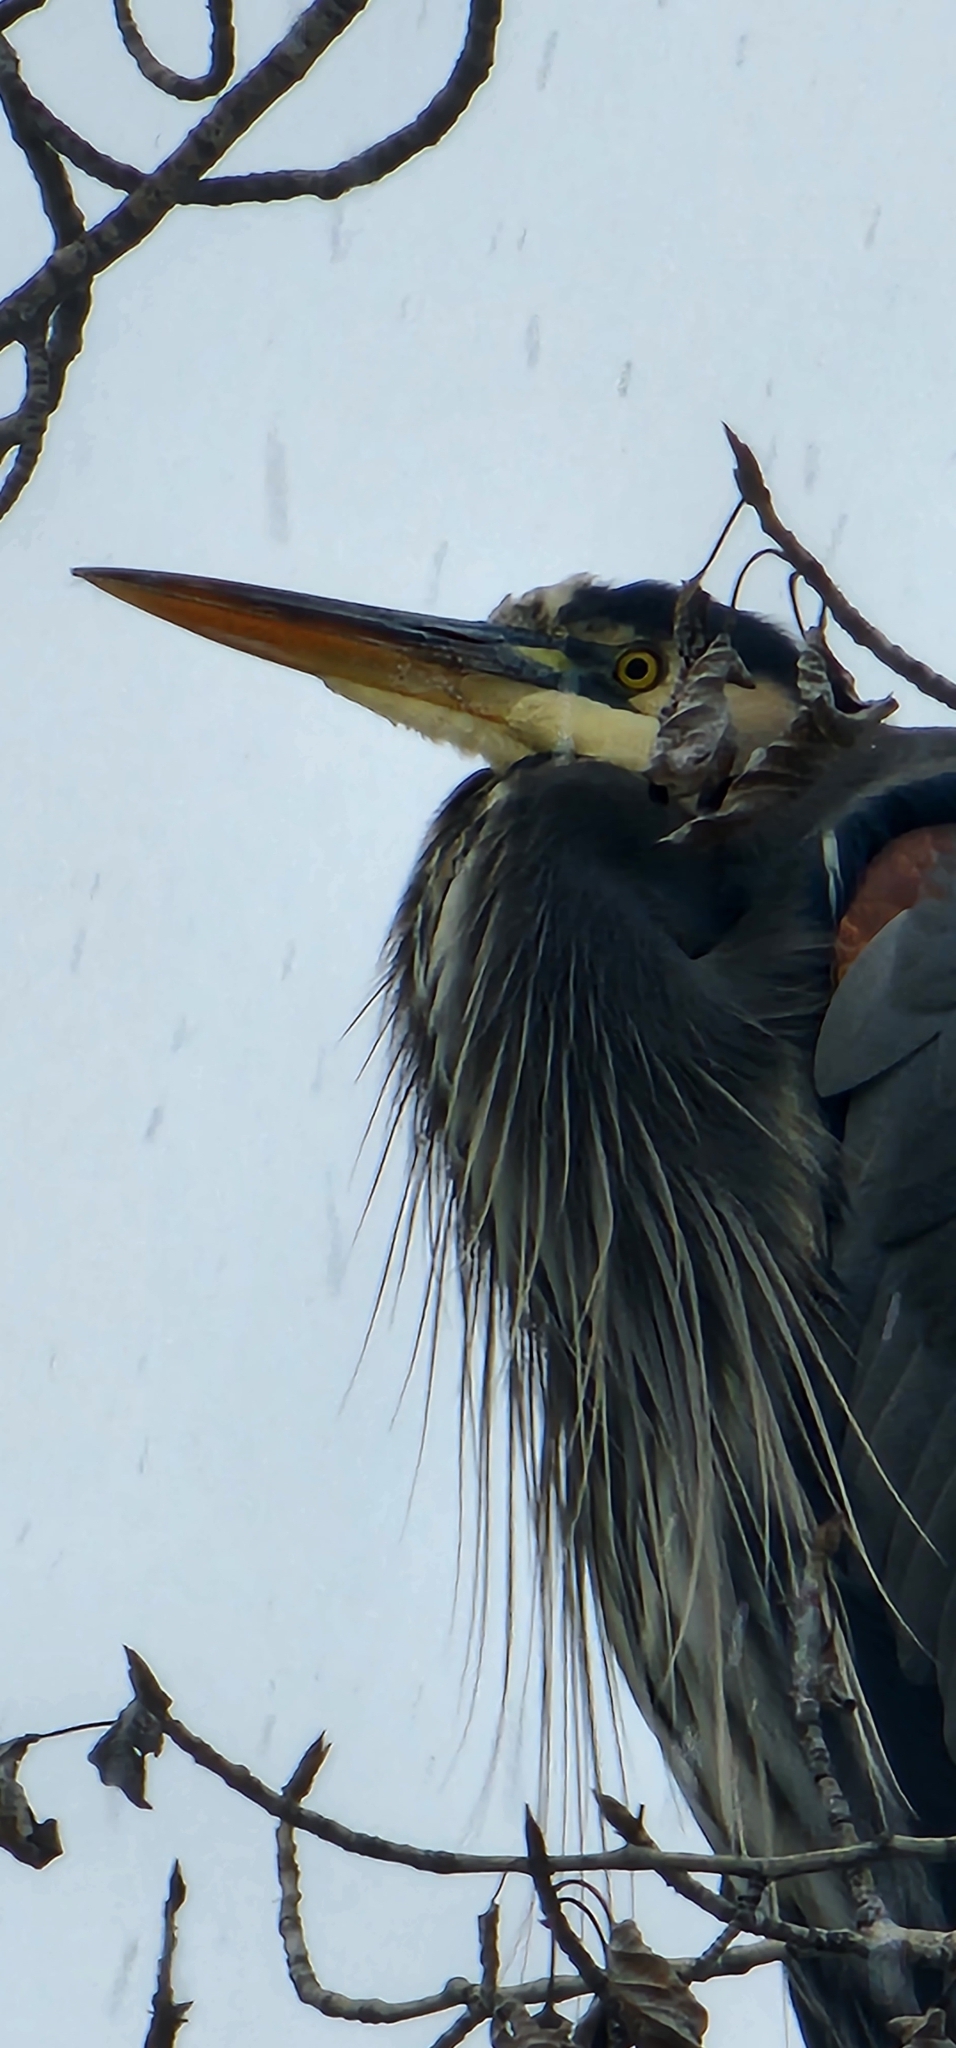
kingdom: Animalia
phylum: Chordata
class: Aves
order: Pelecaniformes
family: Ardeidae
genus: Ardea
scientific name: Ardea herodias
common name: Great blue heron
